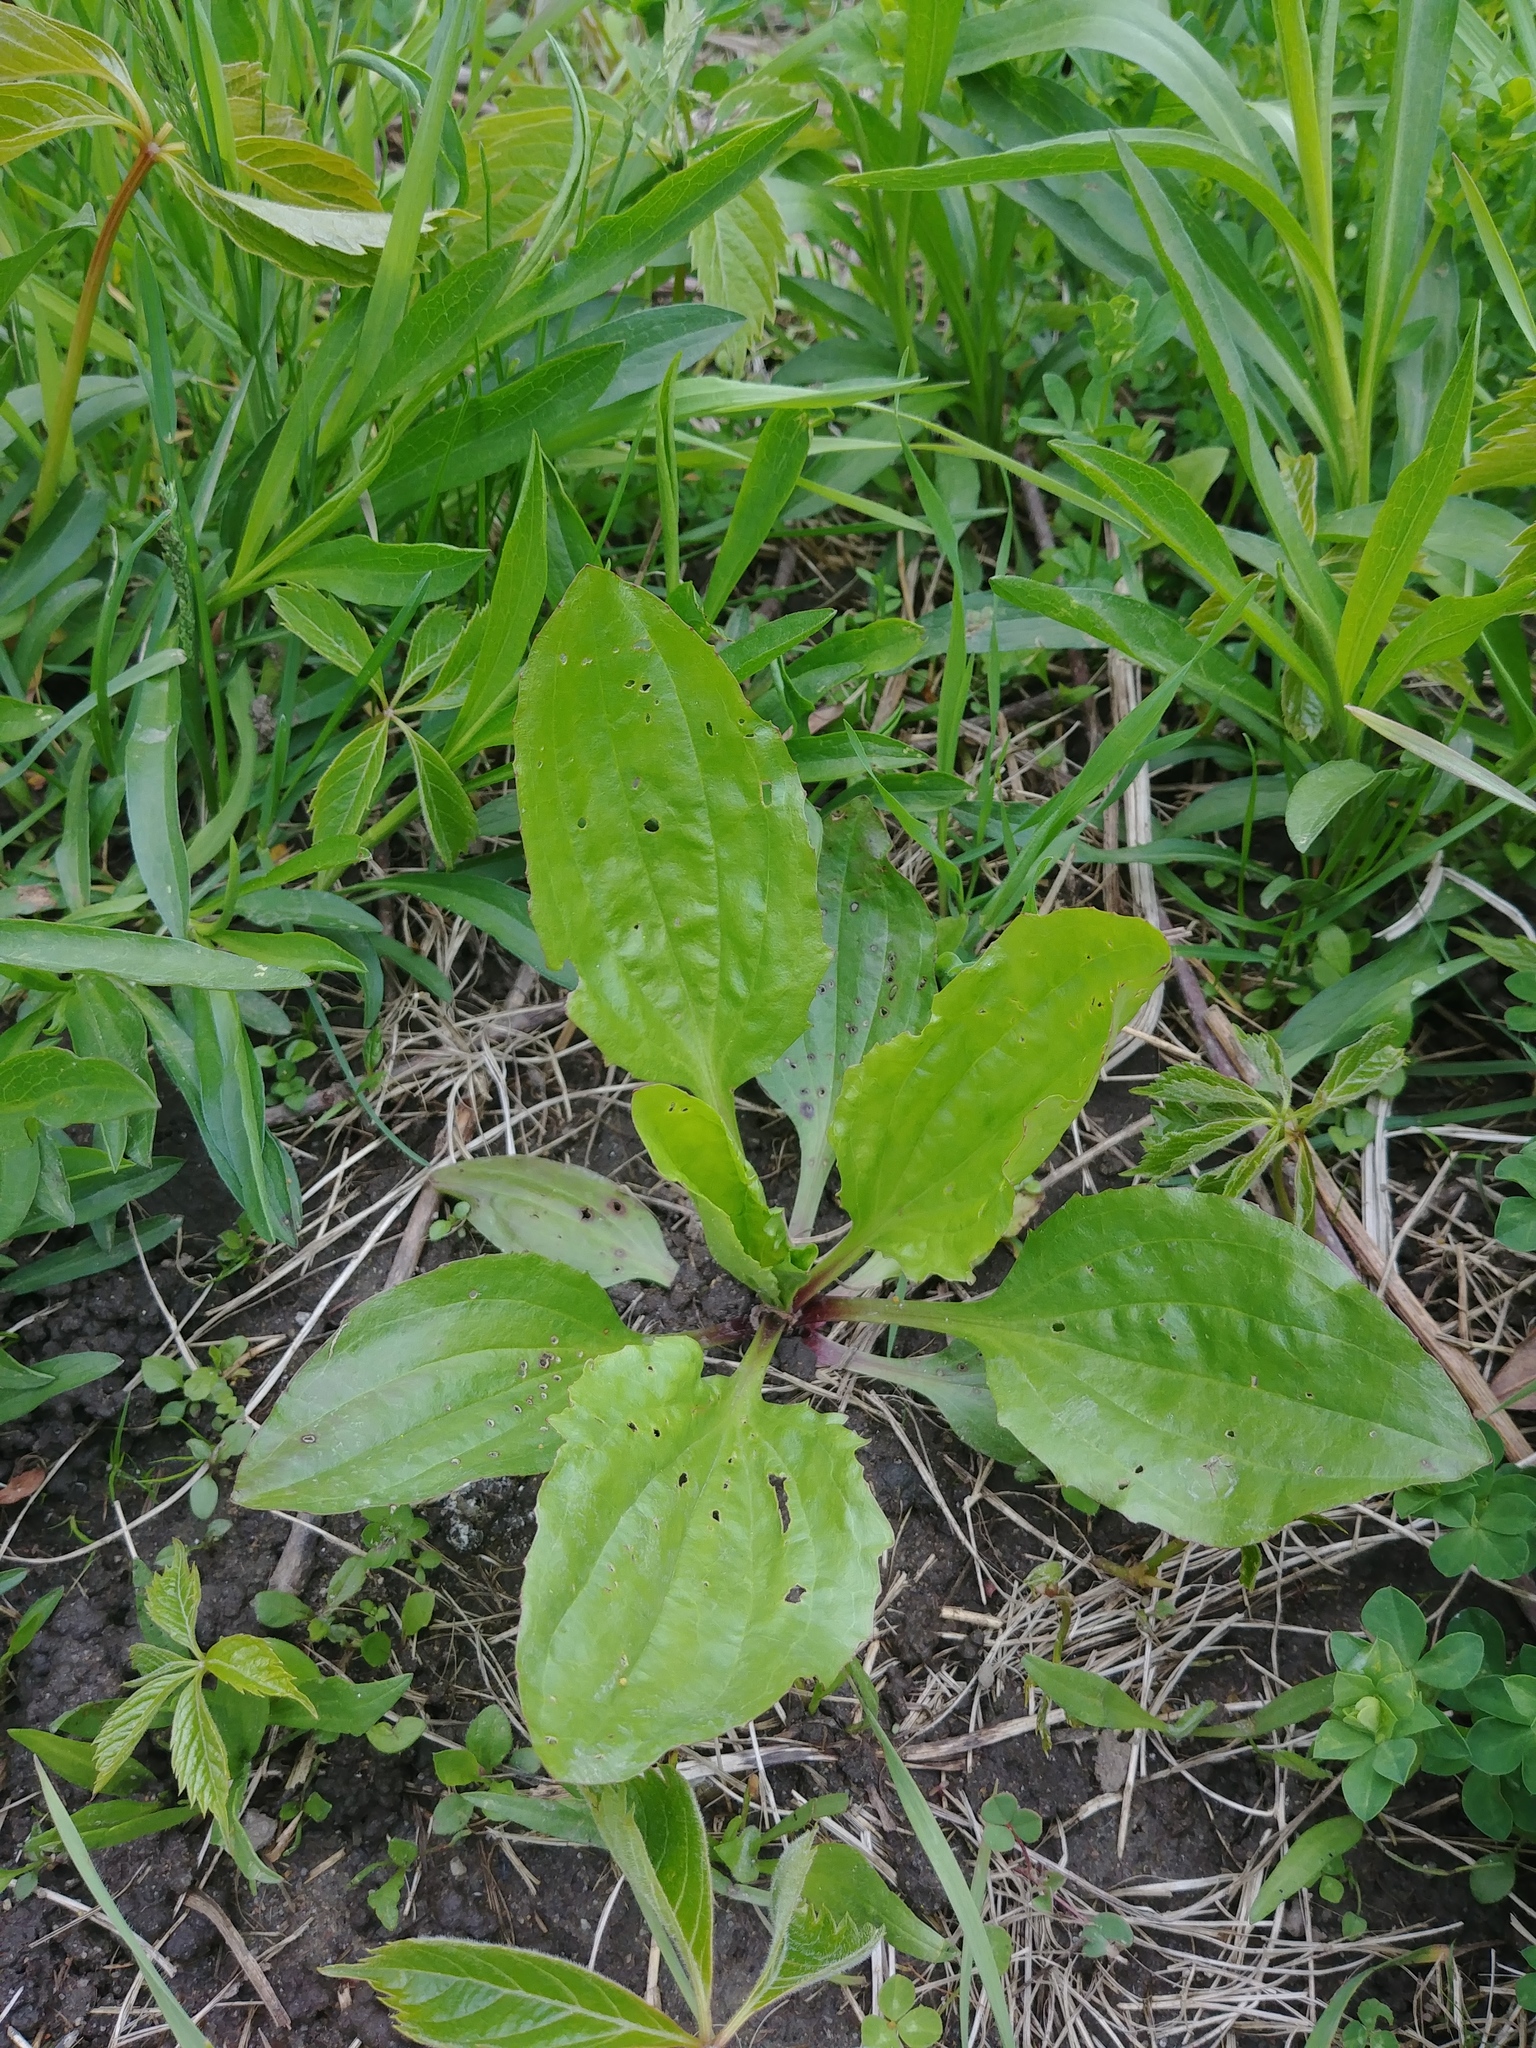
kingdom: Plantae
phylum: Tracheophyta
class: Magnoliopsida
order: Lamiales
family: Plantaginaceae
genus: Plantago
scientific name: Plantago rugelii
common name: American plantain
